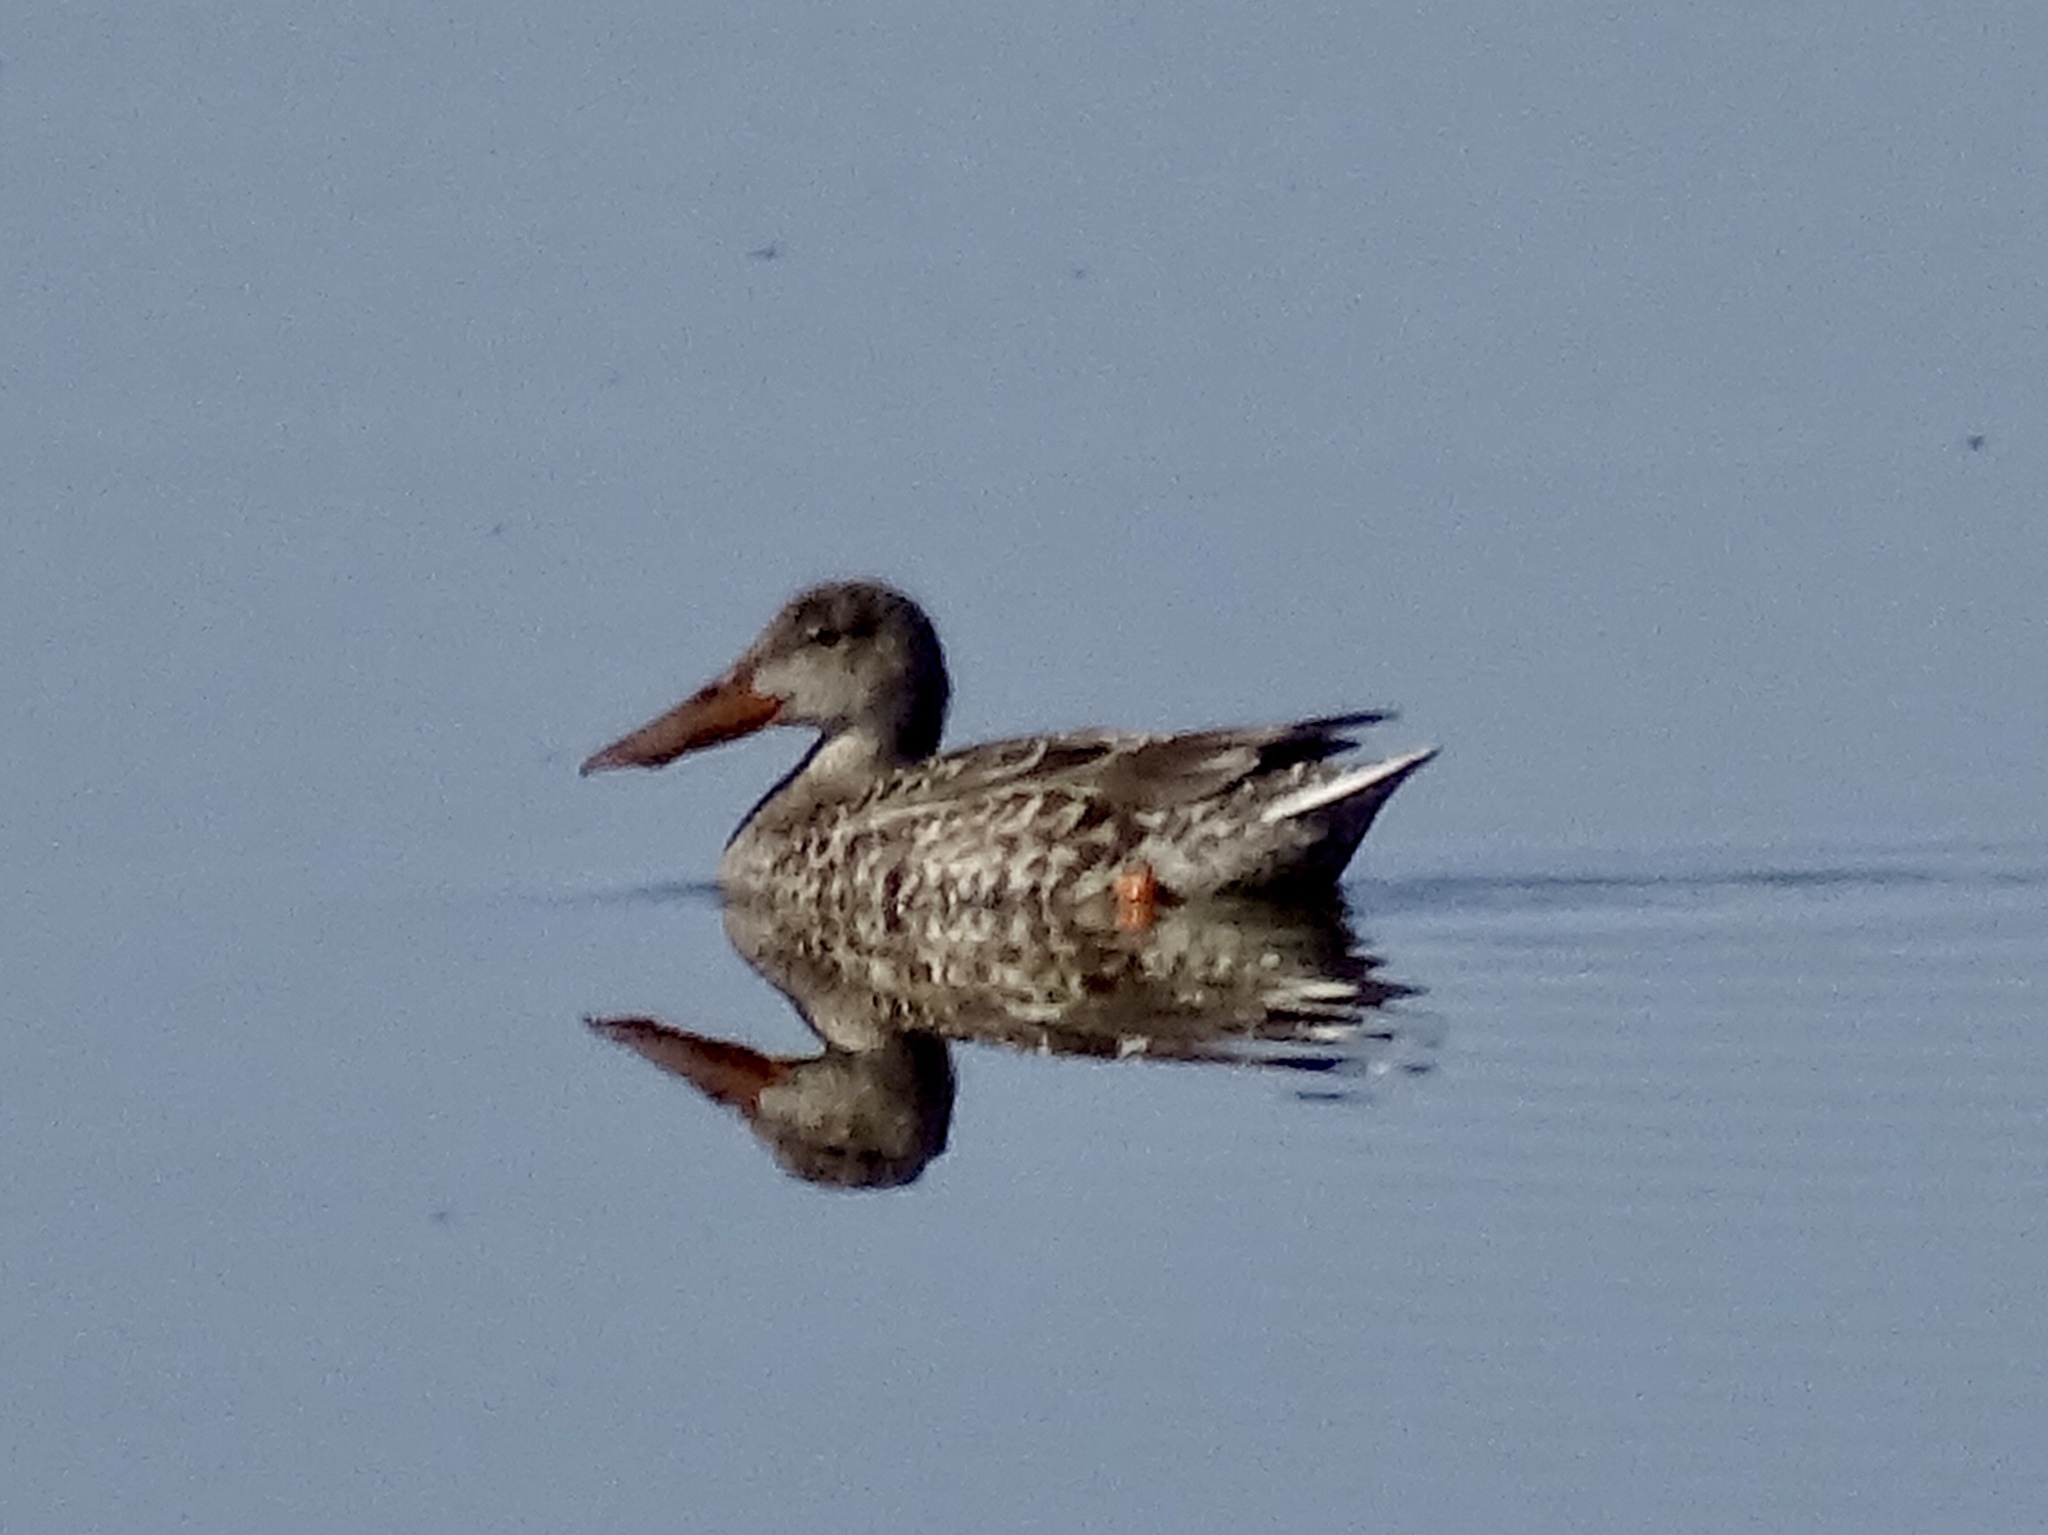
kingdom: Animalia
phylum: Chordata
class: Aves
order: Anseriformes
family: Anatidae
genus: Spatula
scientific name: Spatula clypeata
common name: Northern shoveler
